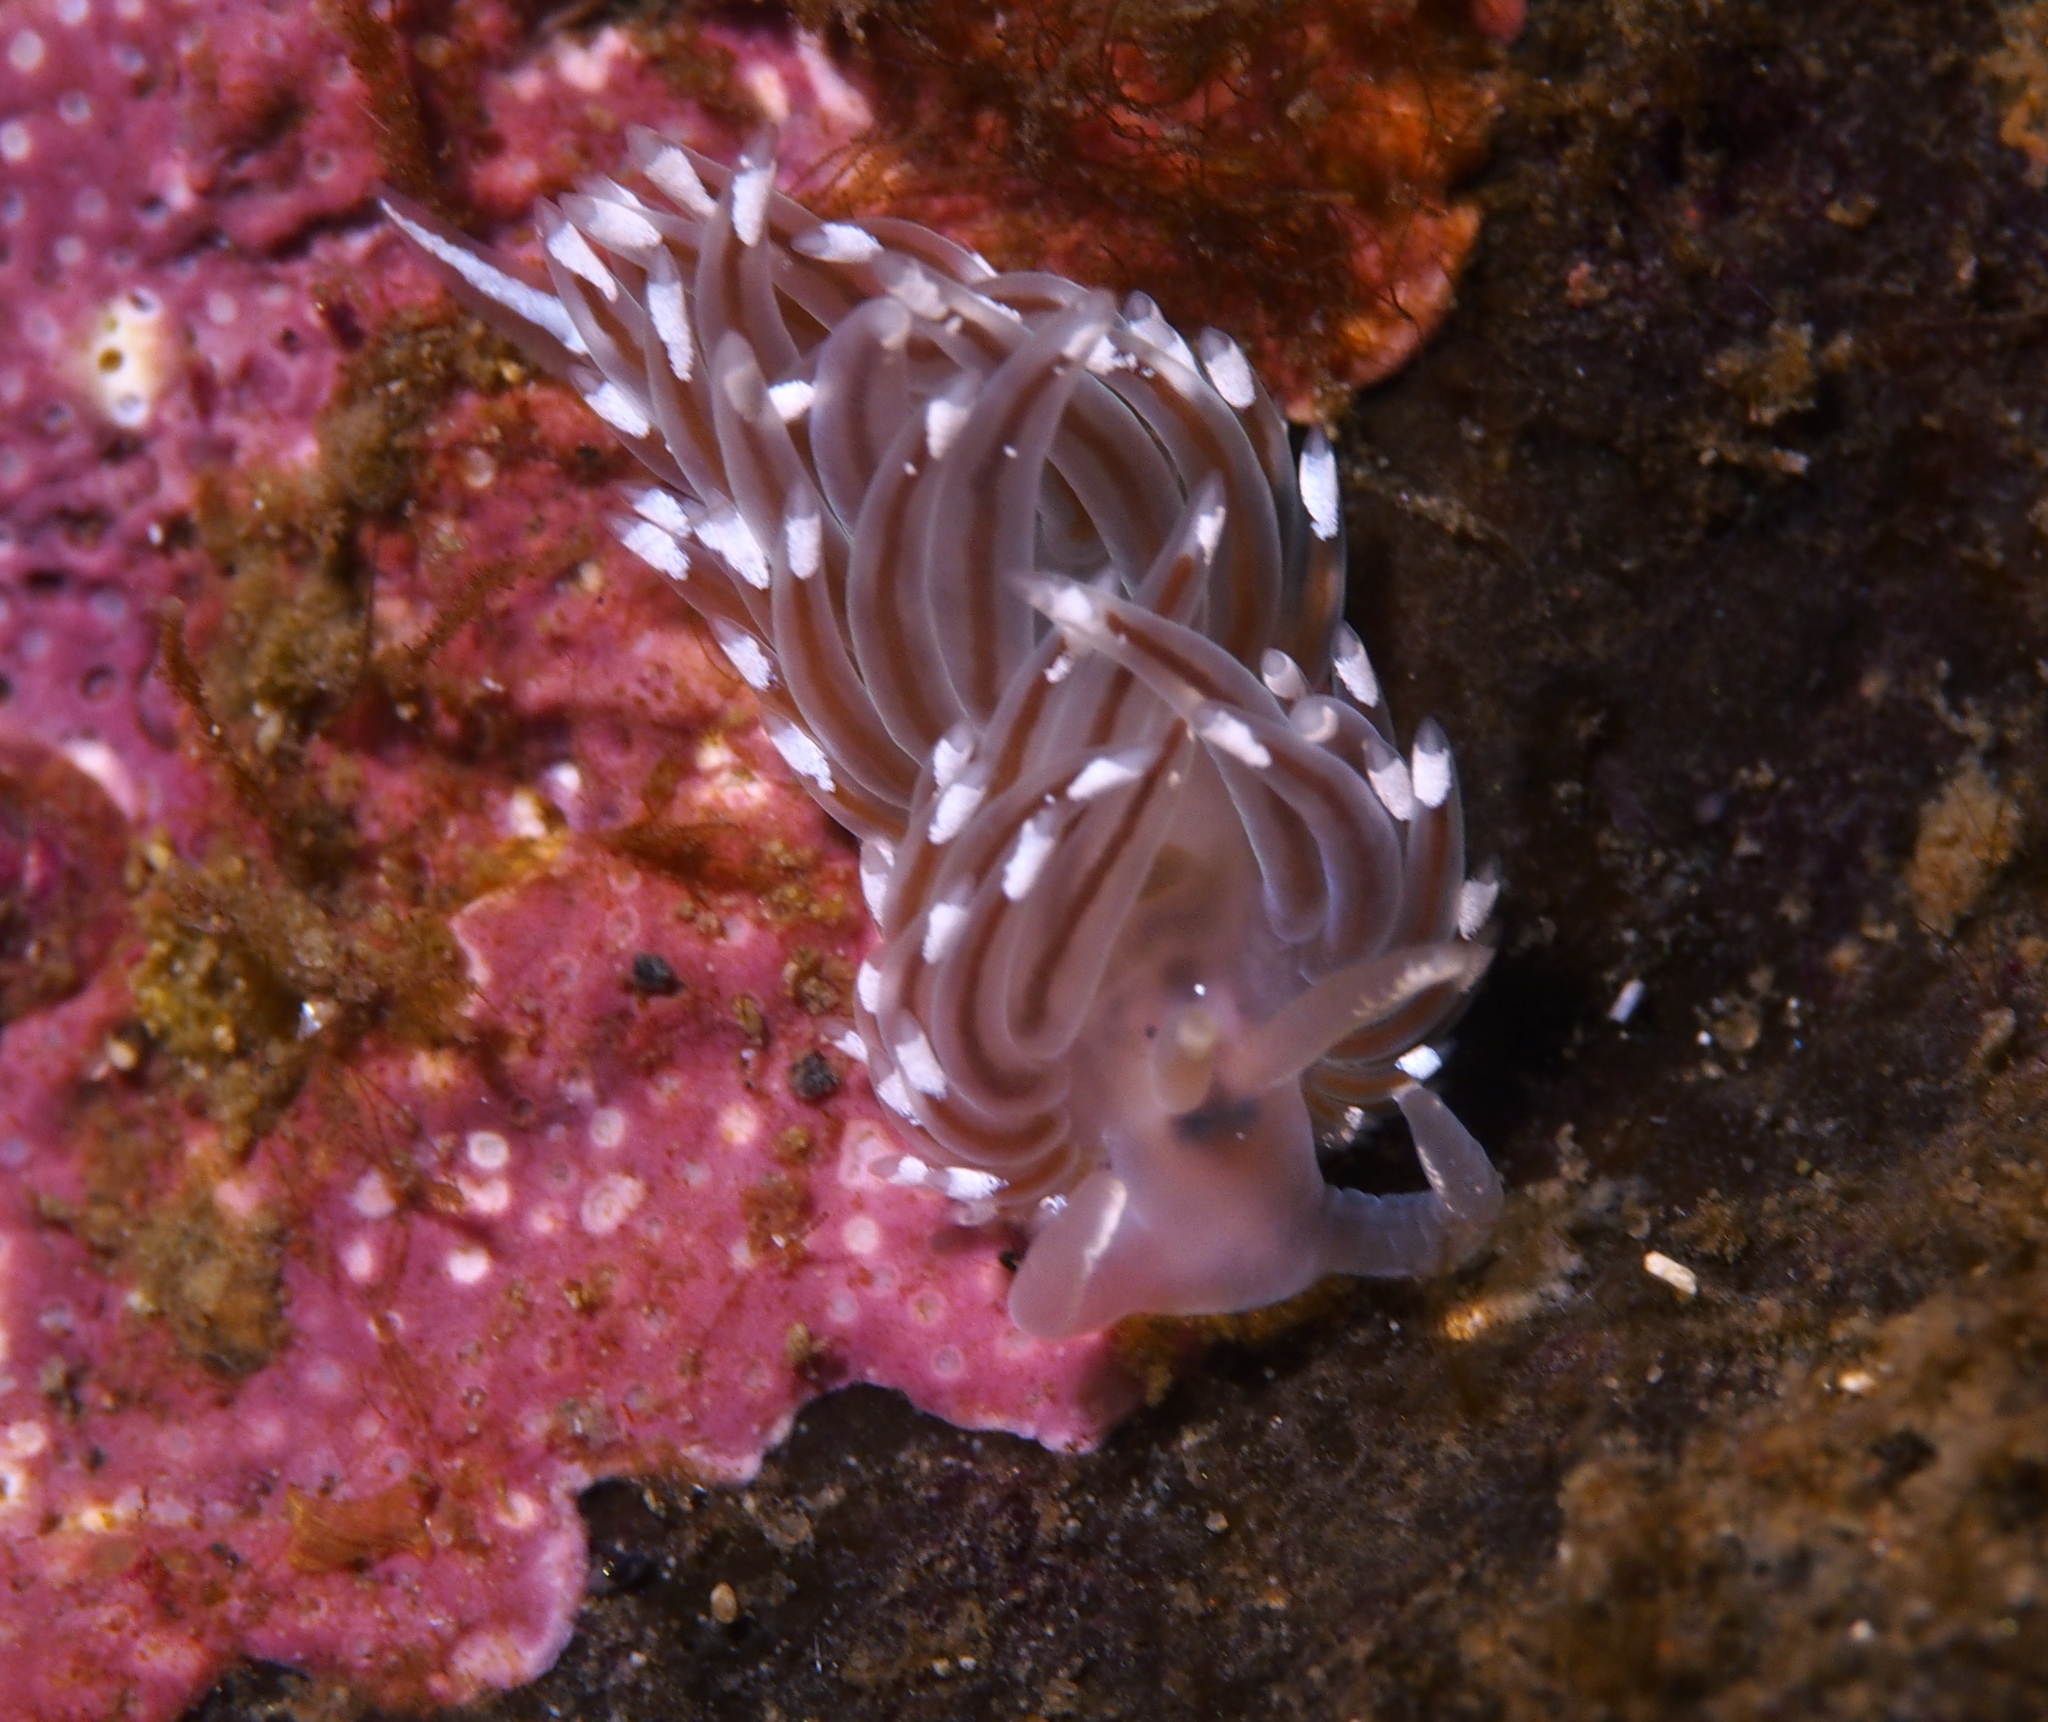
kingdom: Animalia
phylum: Mollusca
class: Gastropoda
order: Nudibranchia
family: Facelinidae
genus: Facelina
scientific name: Facelina bostoniensis
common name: Boston facelina
